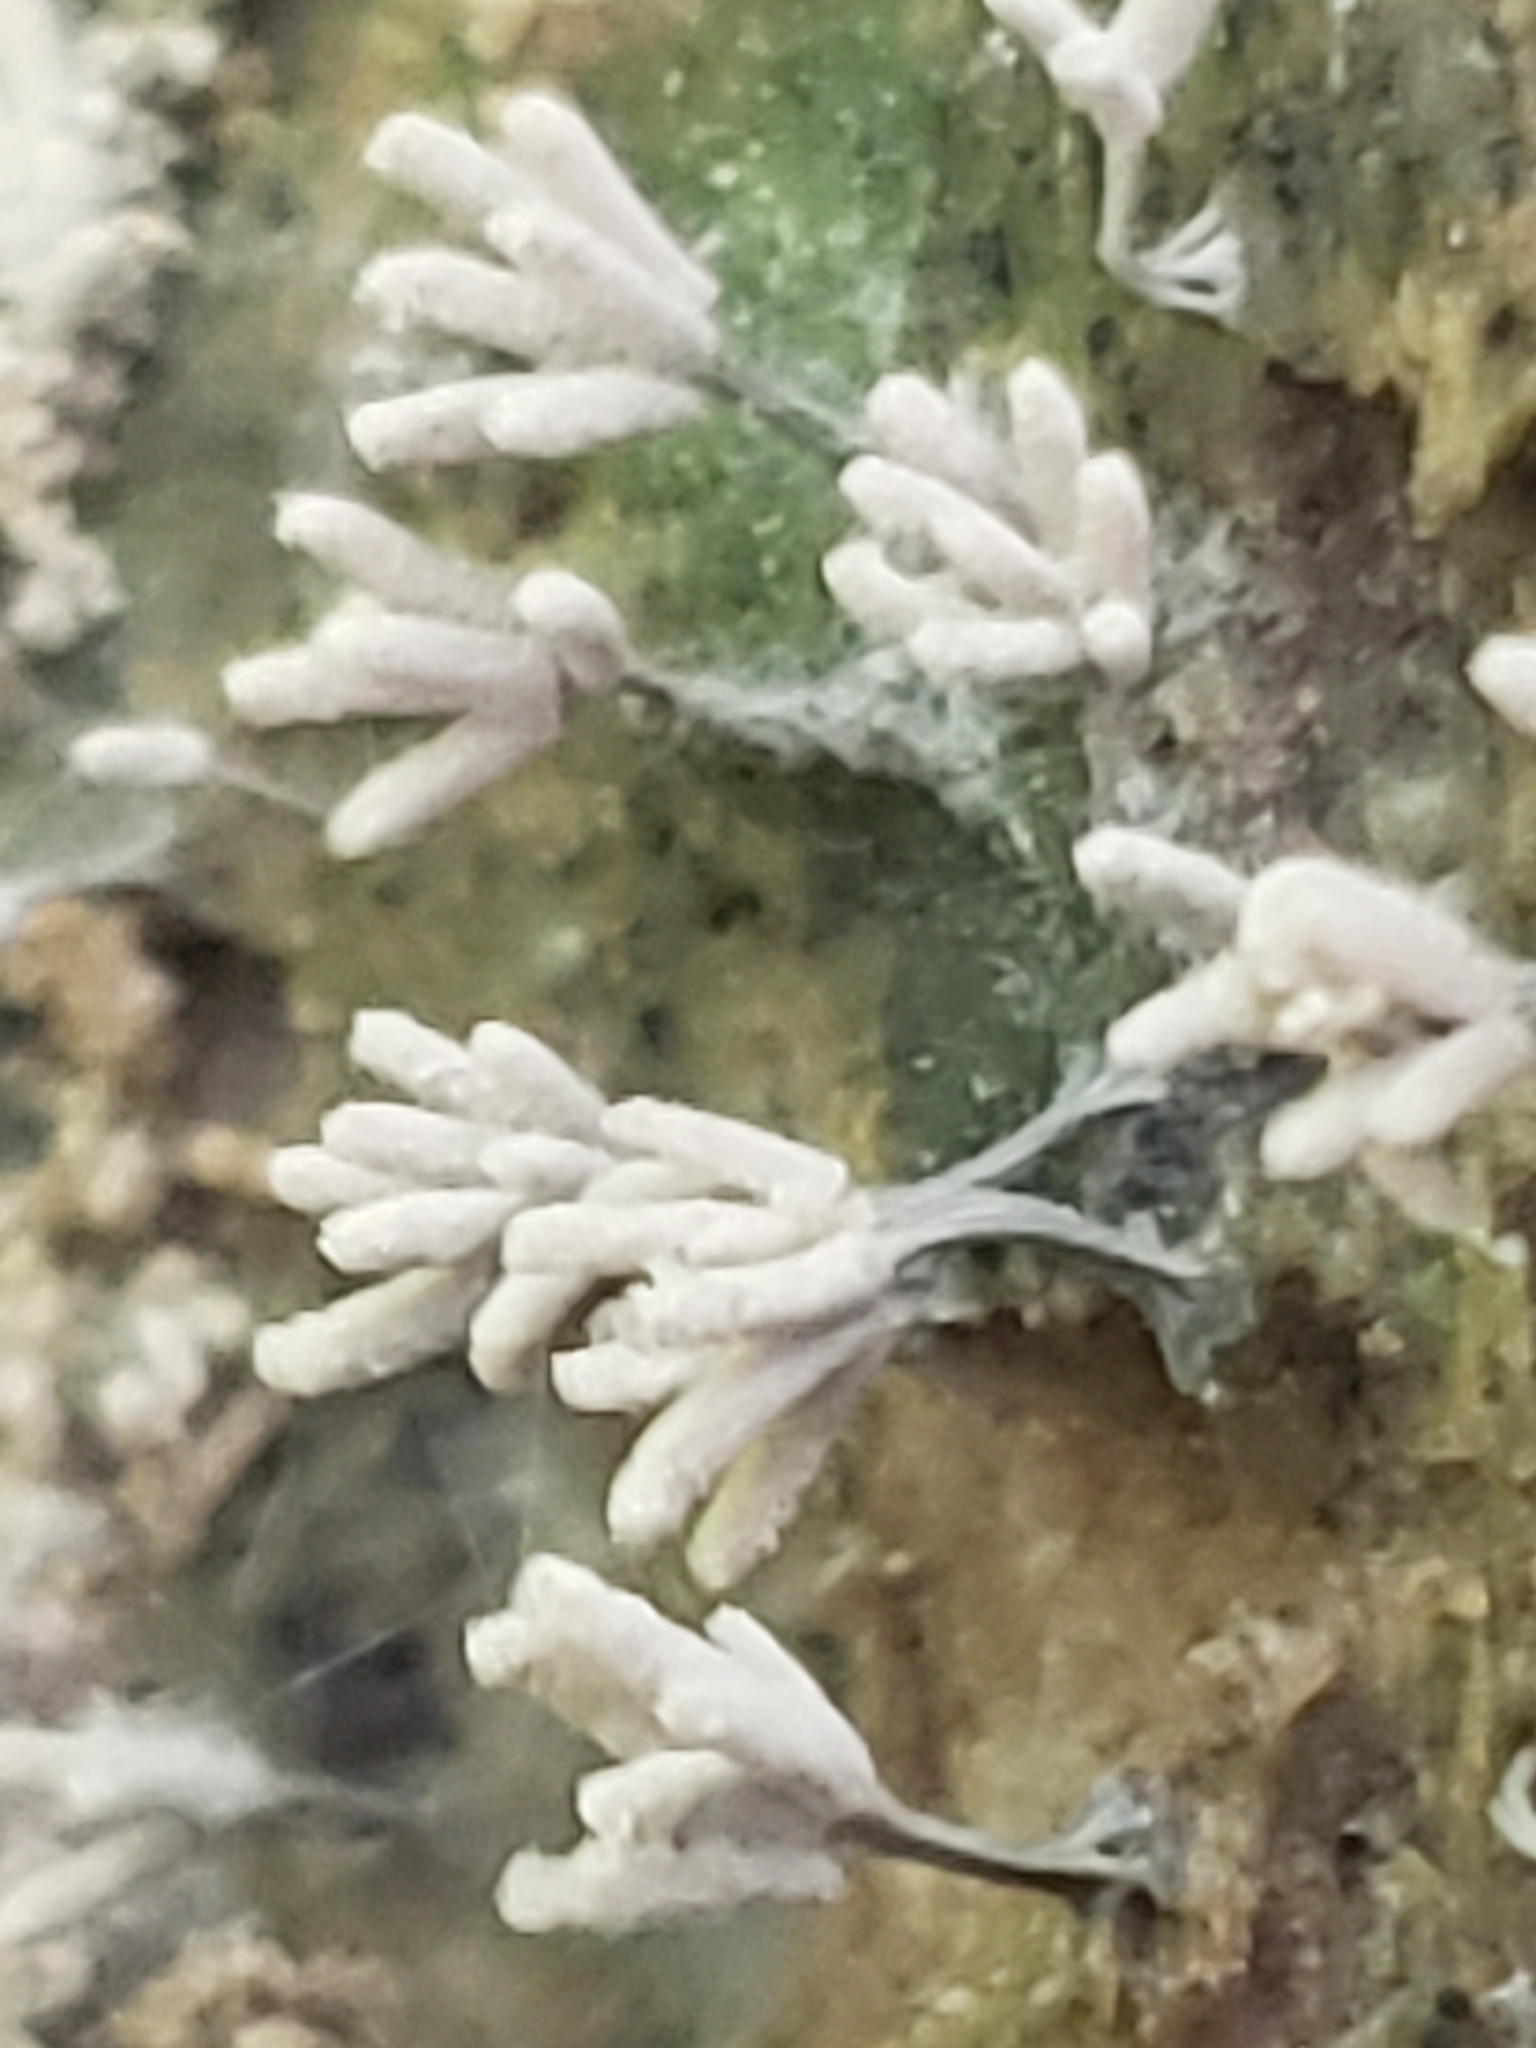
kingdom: Protozoa
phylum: Mycetozoa
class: Myxomycetes
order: Trichiales
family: Arcyriaceae
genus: Arcyria
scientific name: Arcyria cinerea
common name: White carnival candy slime mold
